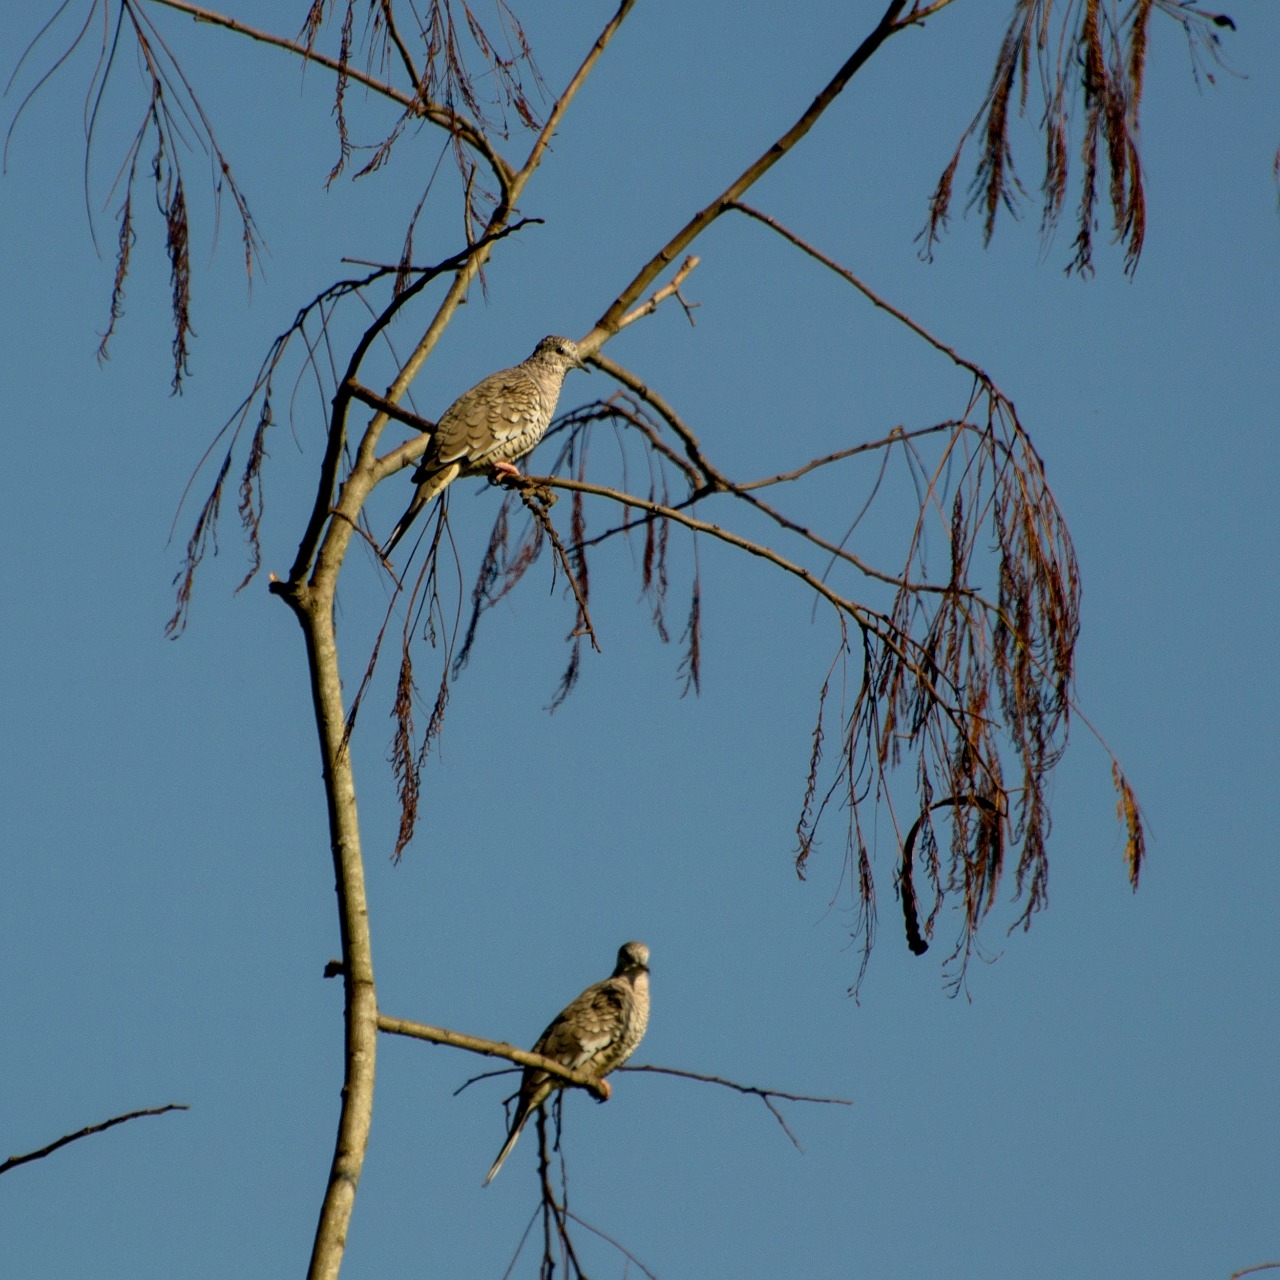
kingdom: Animalia
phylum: Chordata
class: Aves
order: Columbiformes
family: Columbidae
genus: Columbina
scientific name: Columbina squammata
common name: Scaled dove
